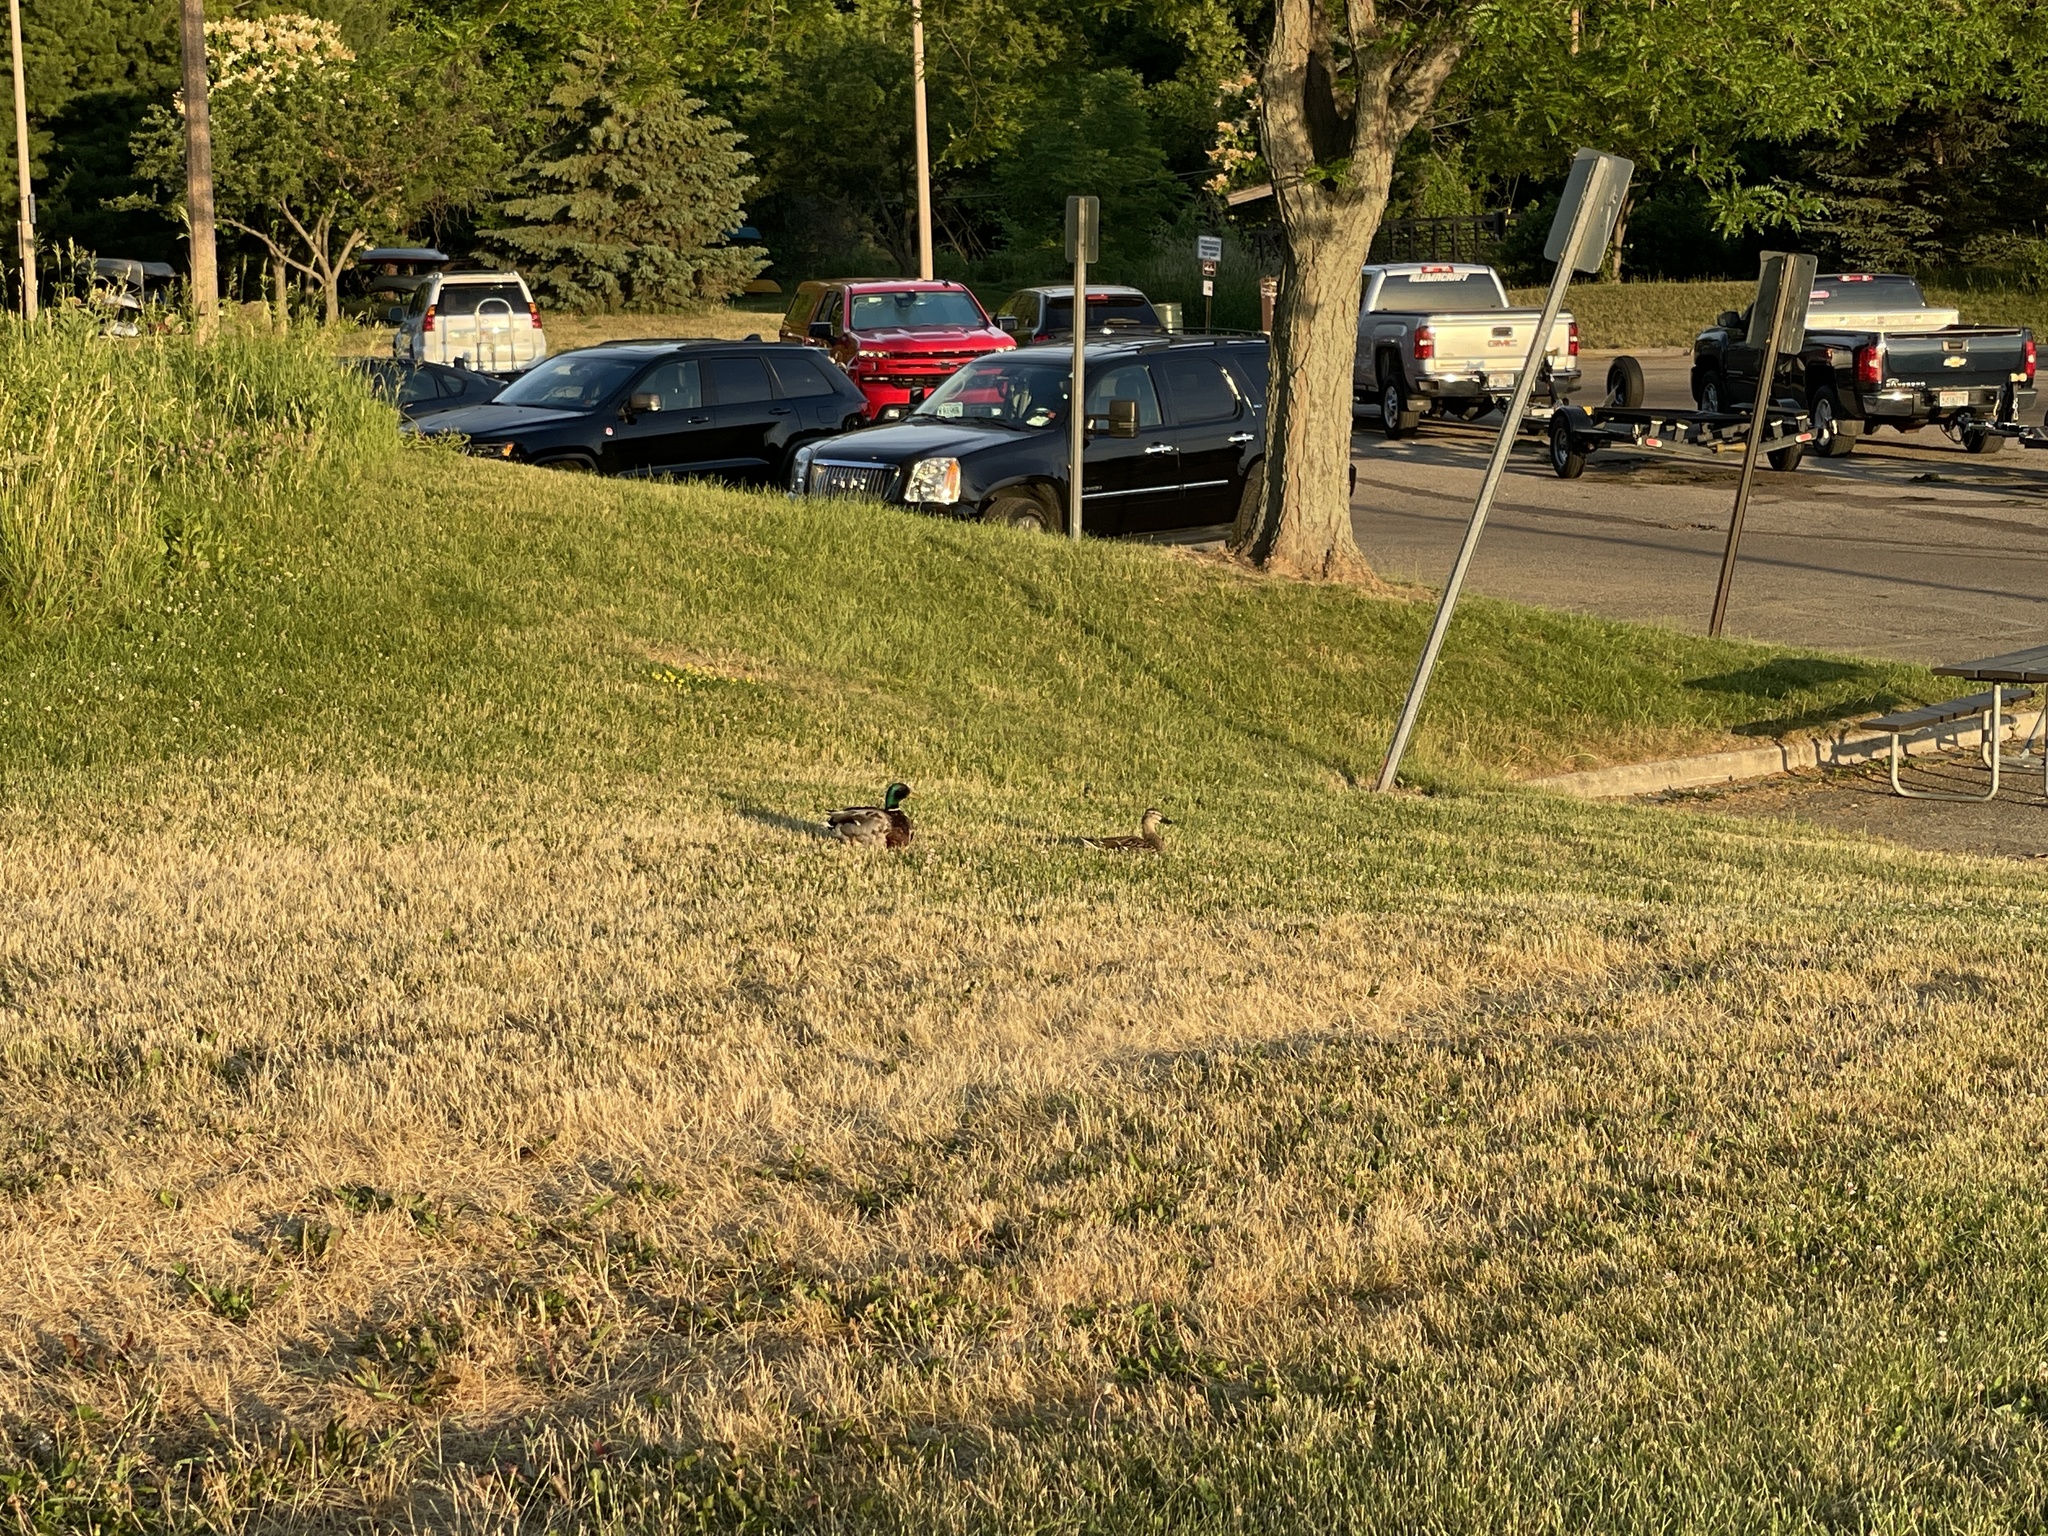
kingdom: Animalia
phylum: Chordata
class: Aves
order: Anseriformes
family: Anatidae
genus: Anas
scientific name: Anas platyrhynchos
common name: Mallard
